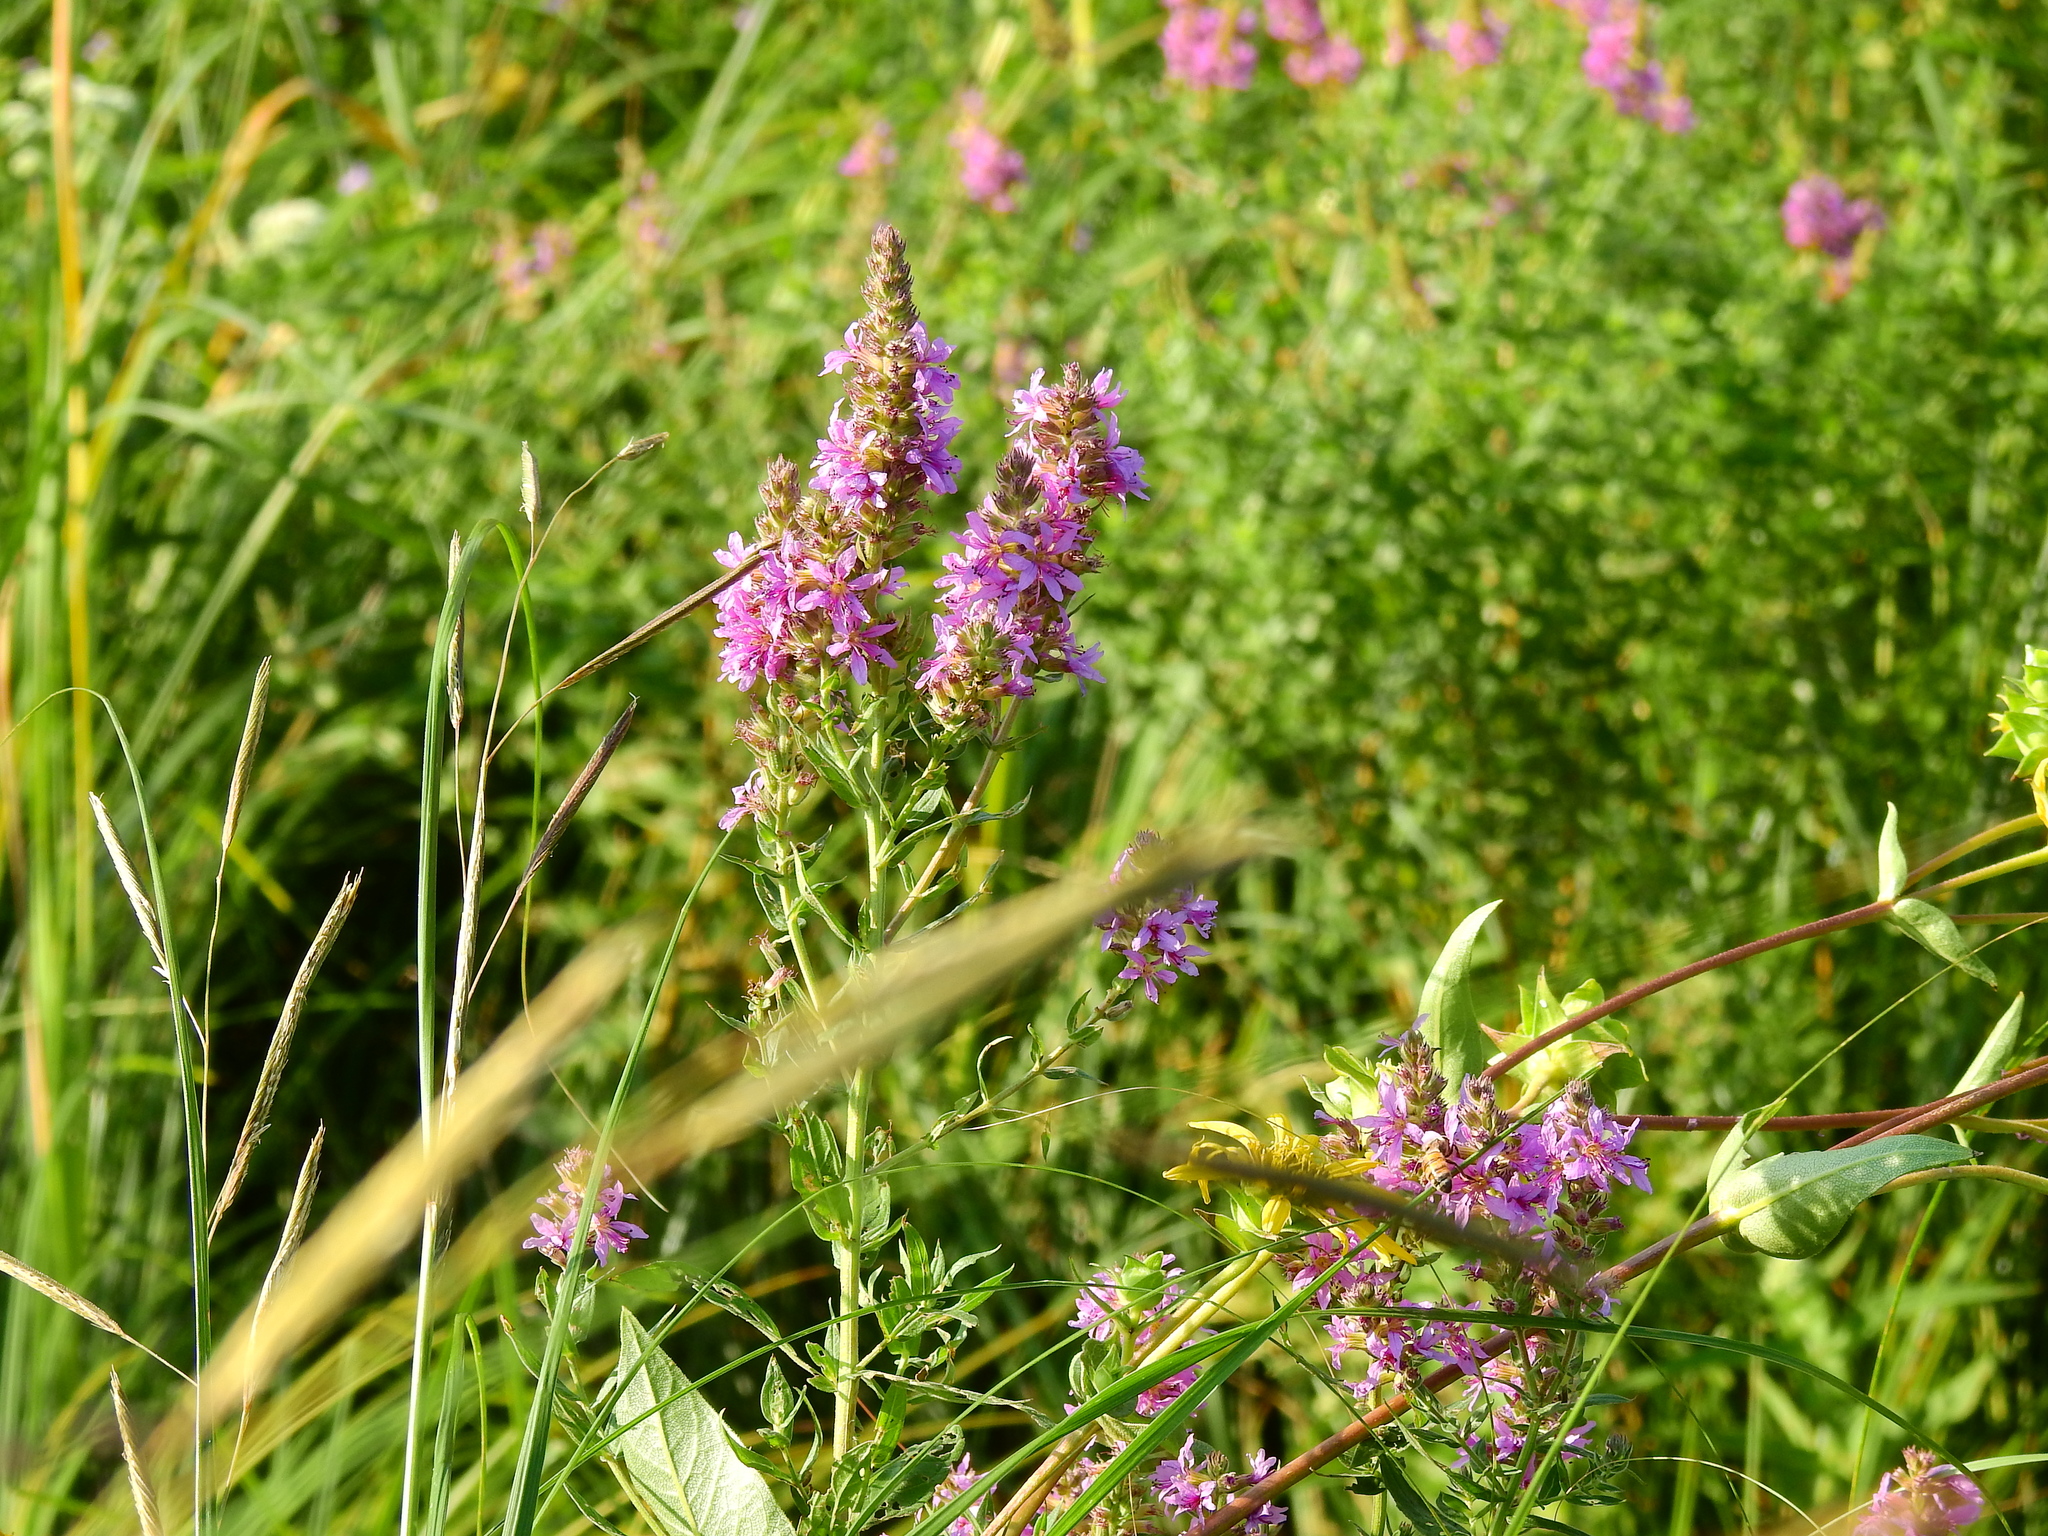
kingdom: Plantae
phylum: Tracheophyta
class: Magnoliopsida
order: Myrtales
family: Lythraceae
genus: Lythrum
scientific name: Lythrum salicaria
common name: Purple loosestrife
